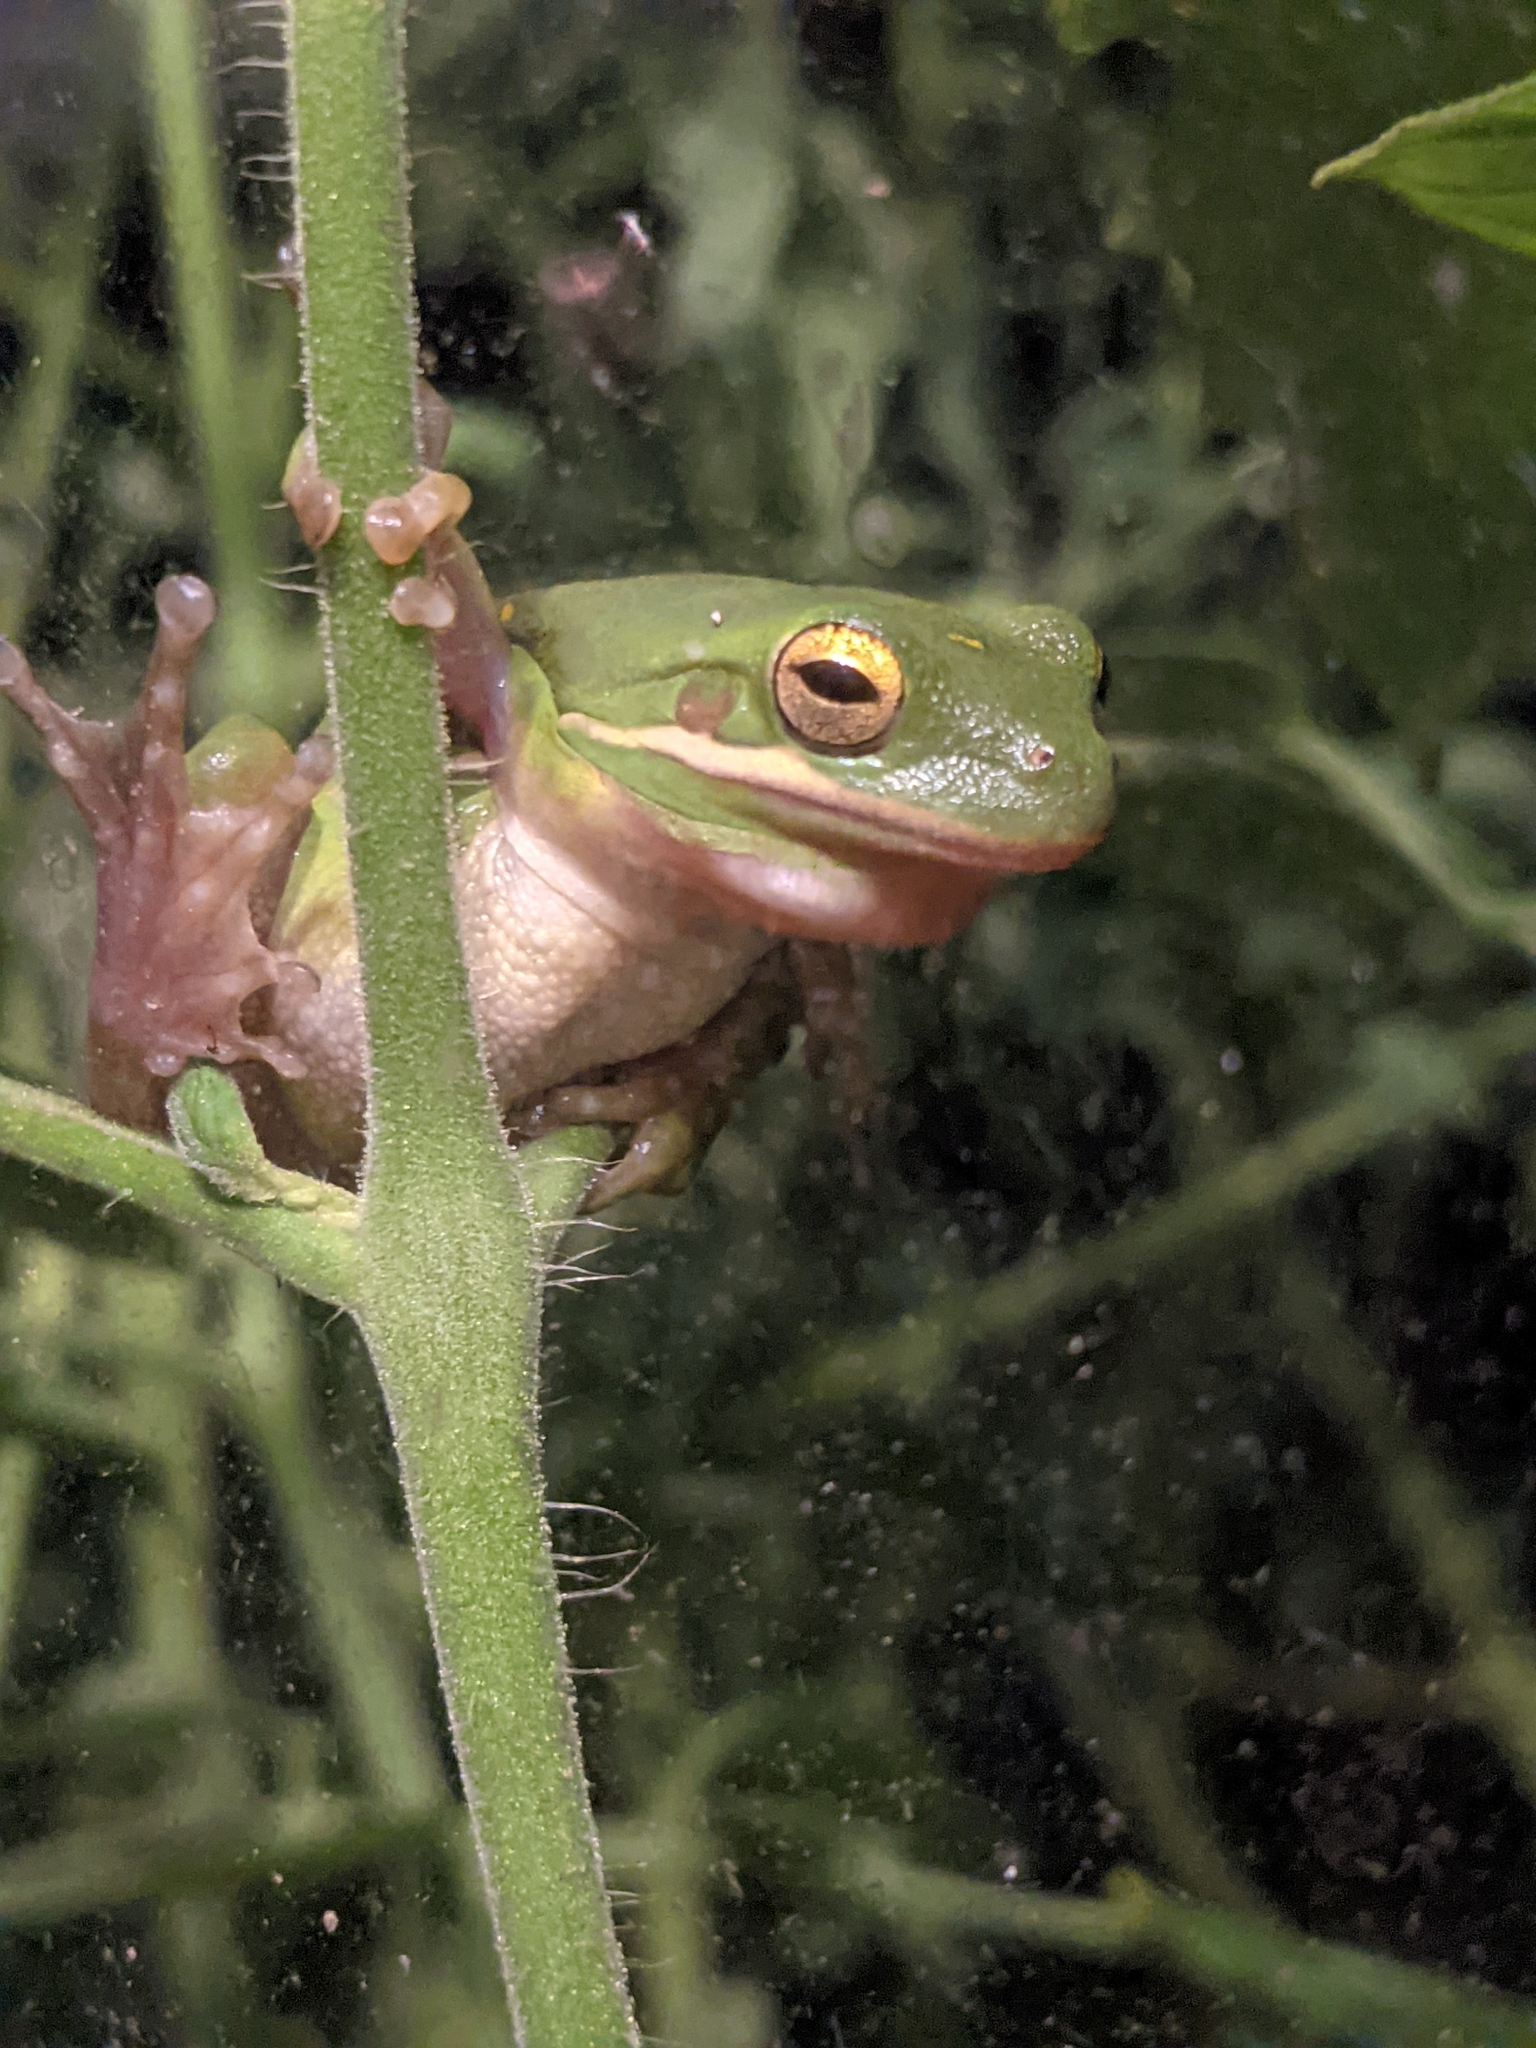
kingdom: Animalia
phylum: Chordata
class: Amphibia
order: Anura
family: Hylidae
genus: Dryophytes
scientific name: Dryophytes cinereus
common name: Green treefrog
